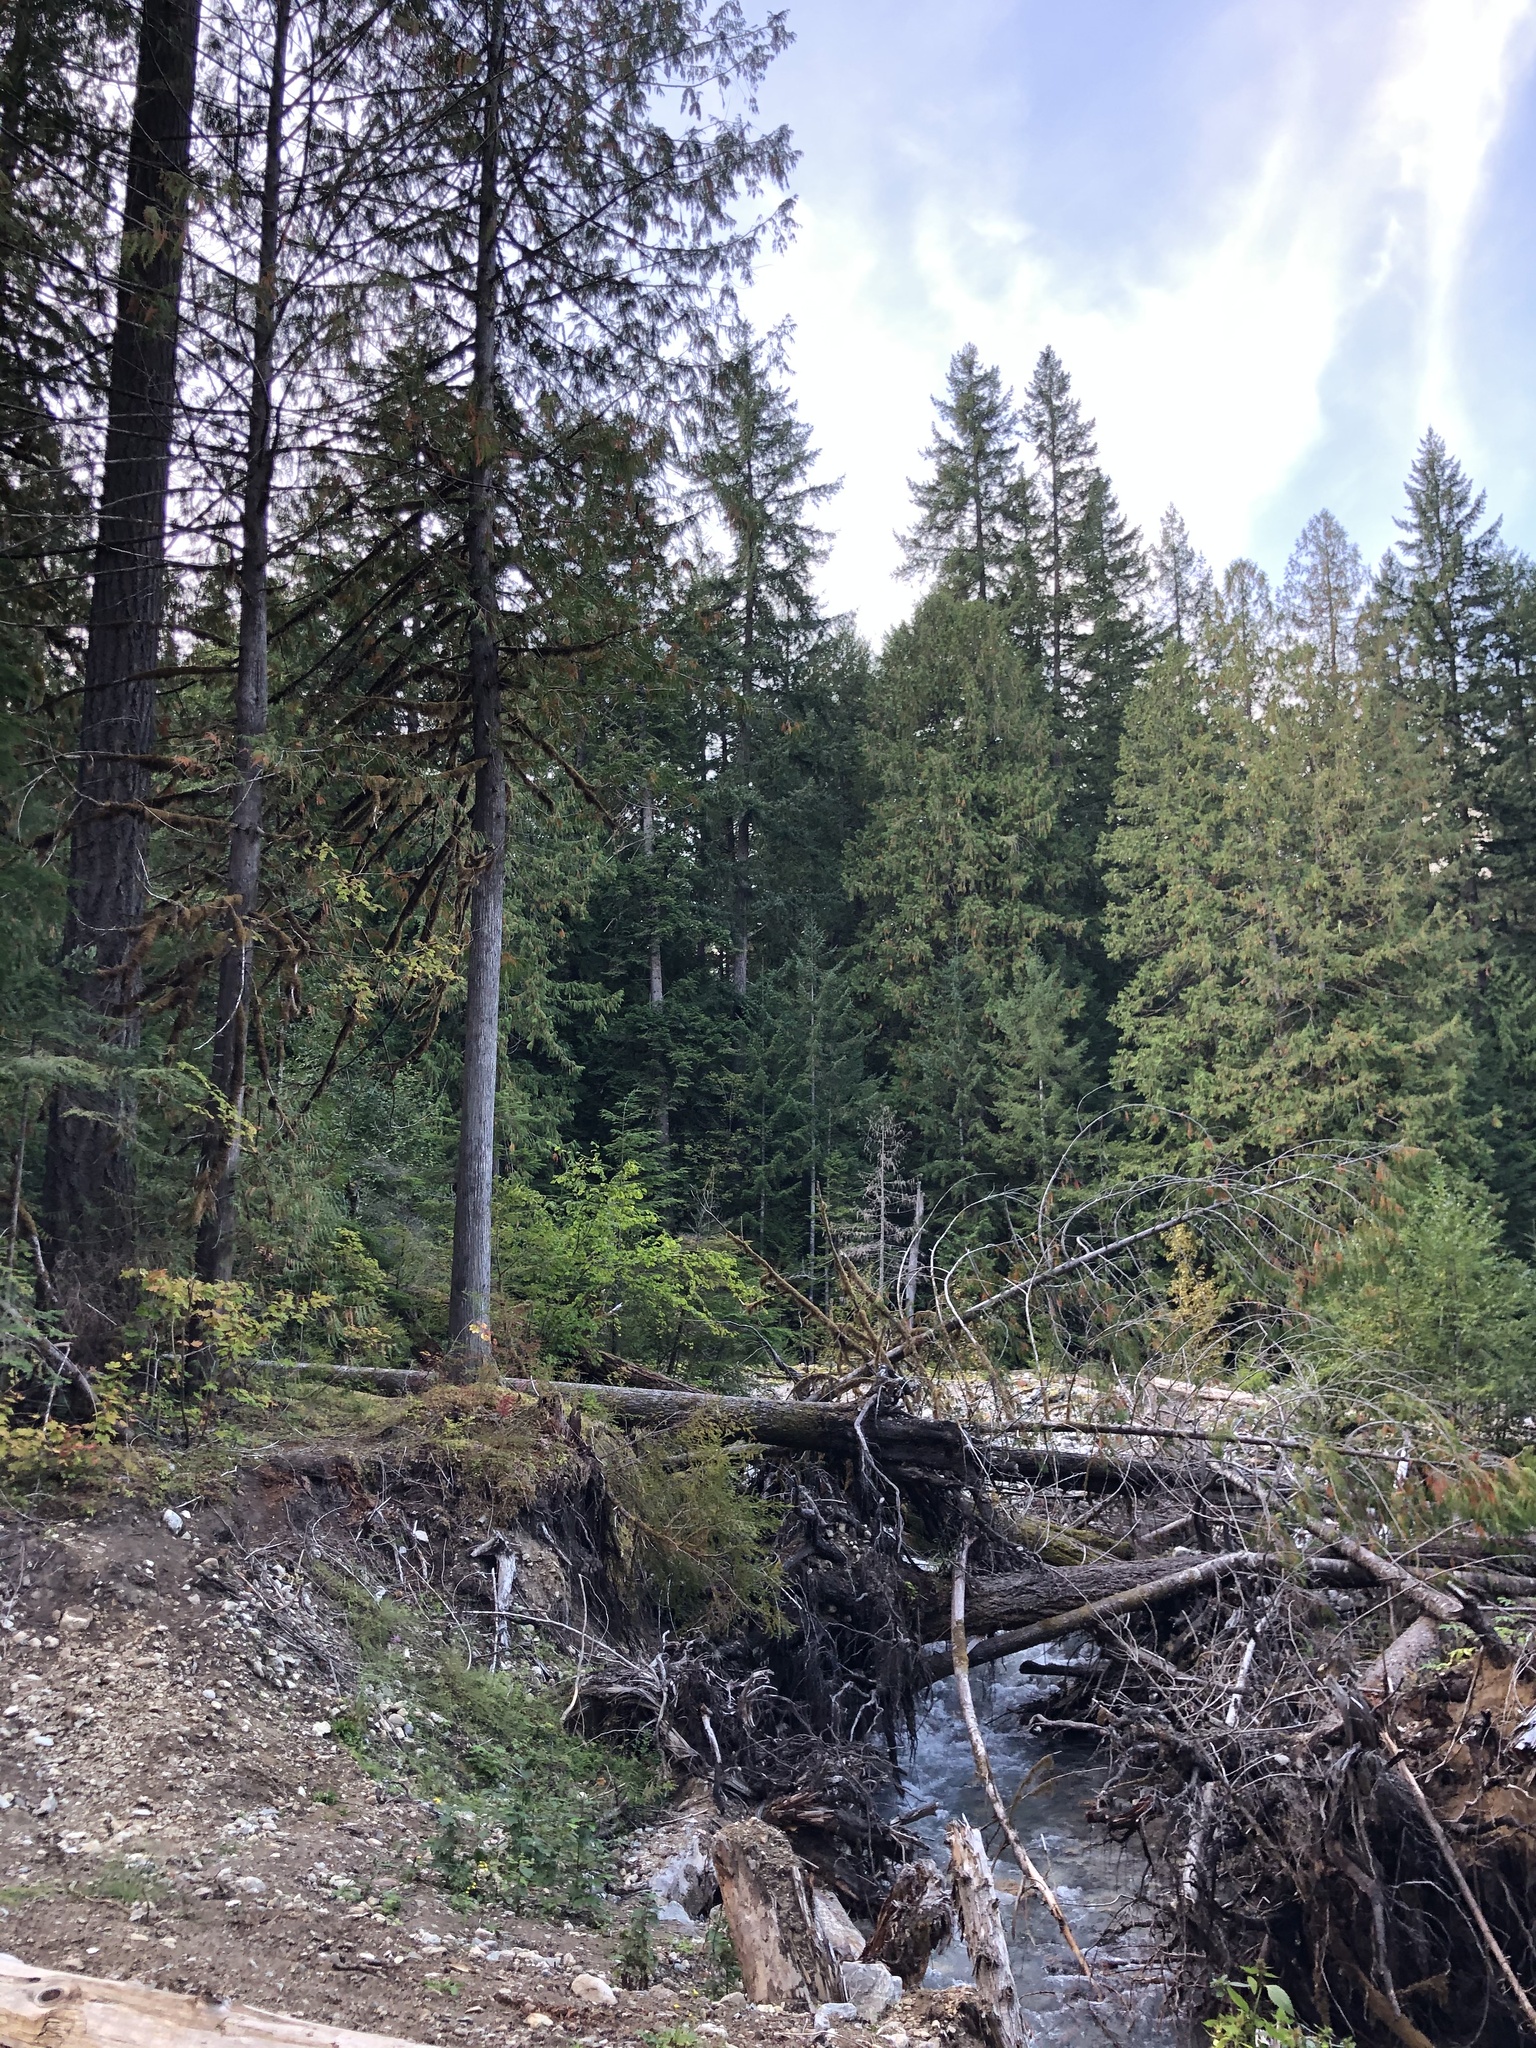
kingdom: Plantae
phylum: Tracheophyta
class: Pinopsida
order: Pinales
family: Cupressaceae
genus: Thuja
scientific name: Thuja plicata
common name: Western red-cedar
